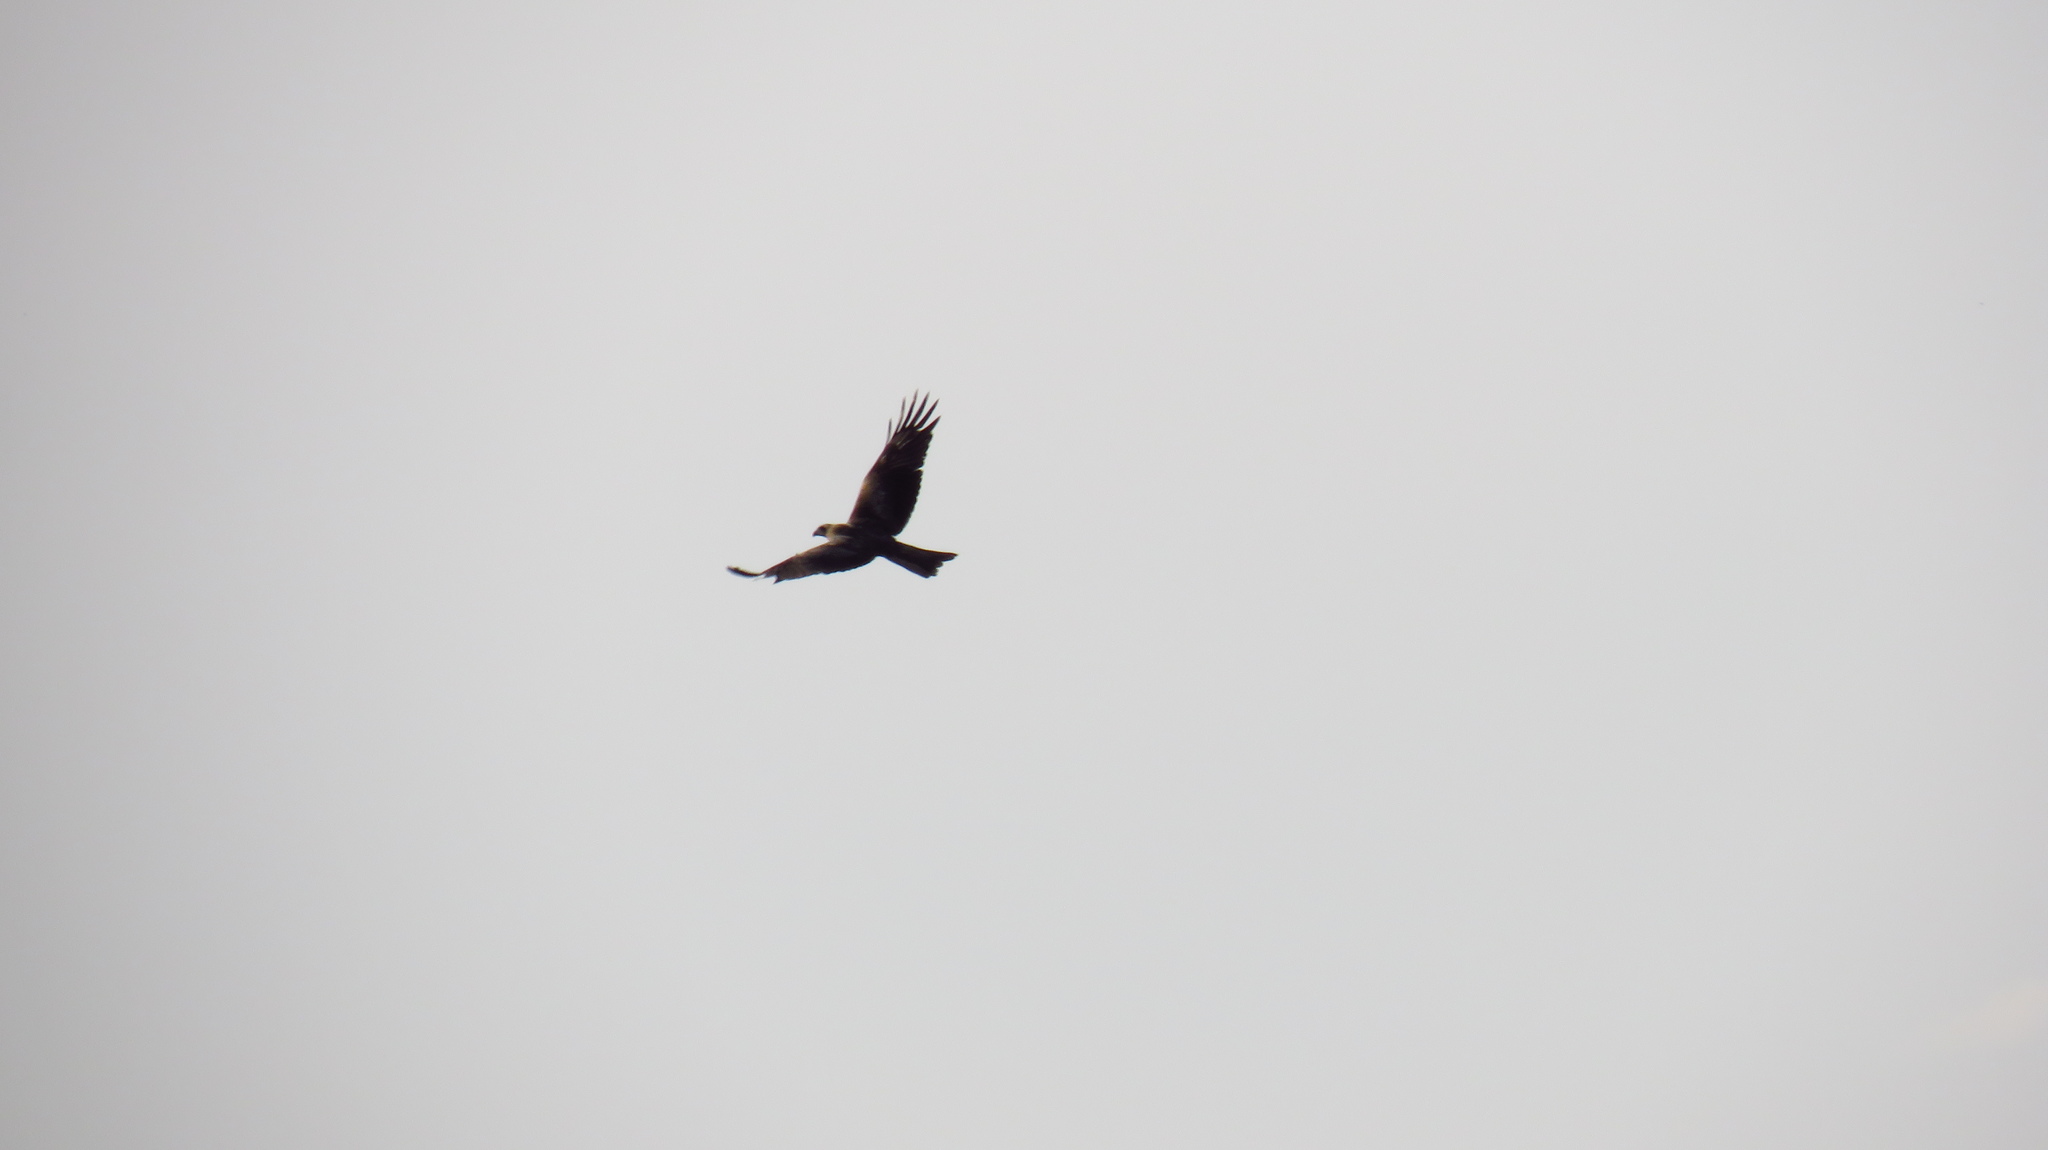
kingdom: Animalia
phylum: Chordata
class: Aves
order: Accipitriformes
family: Accipitridae
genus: Milvus
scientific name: Milvus migrans
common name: Black kite
